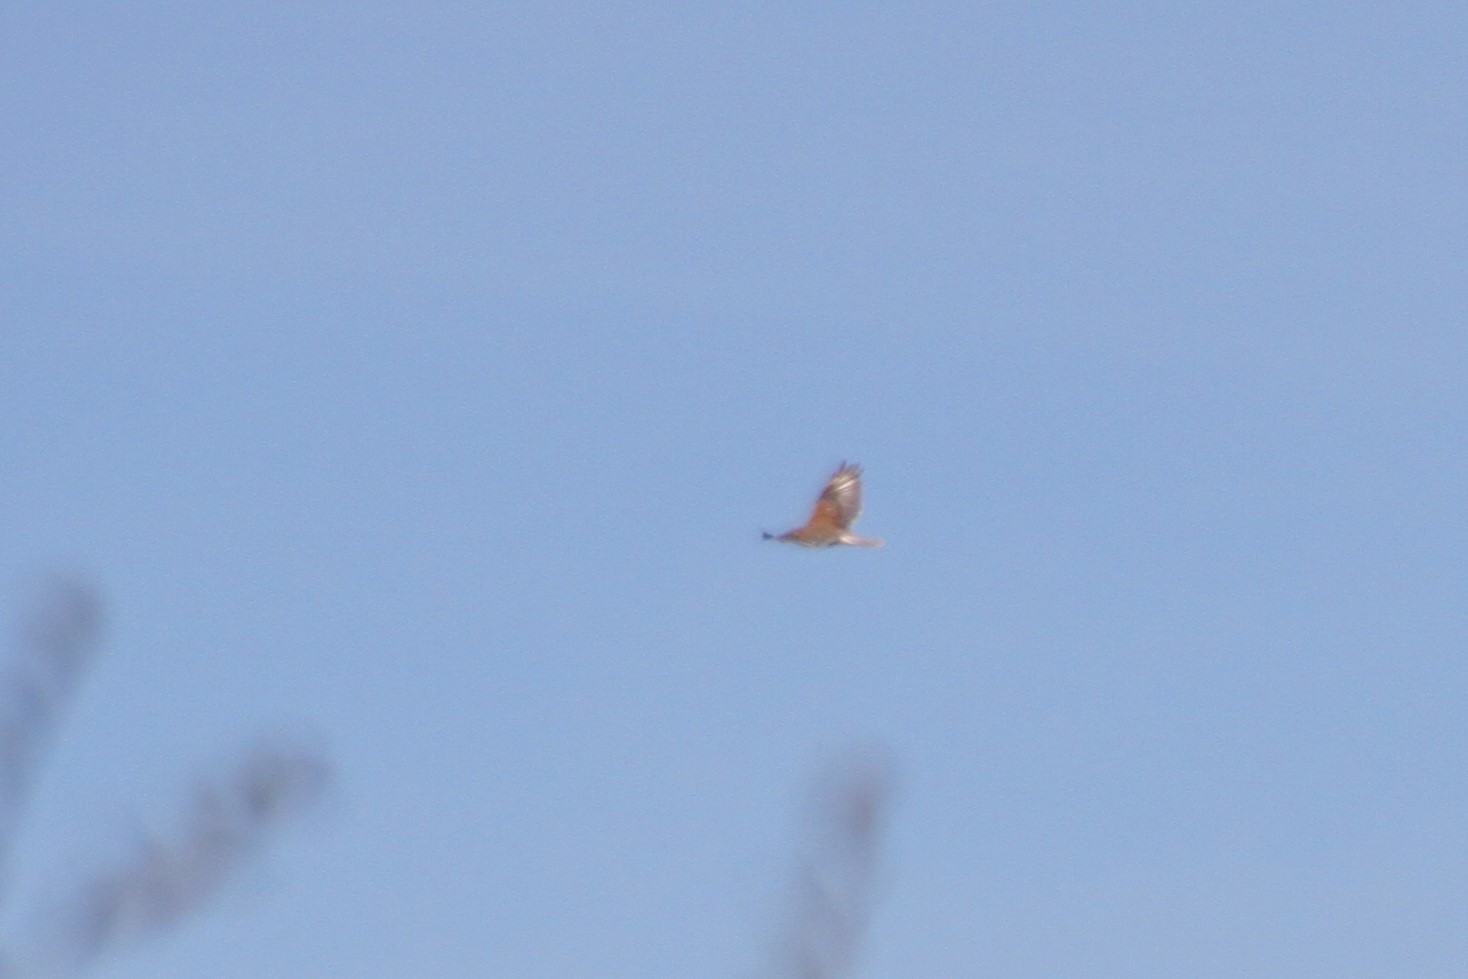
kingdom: Animalia
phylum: Chordata
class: Aves
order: Accipitriformes
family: Accipitridae
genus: Buteo
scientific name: Buteo regalis
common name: Ferruginous hawk
